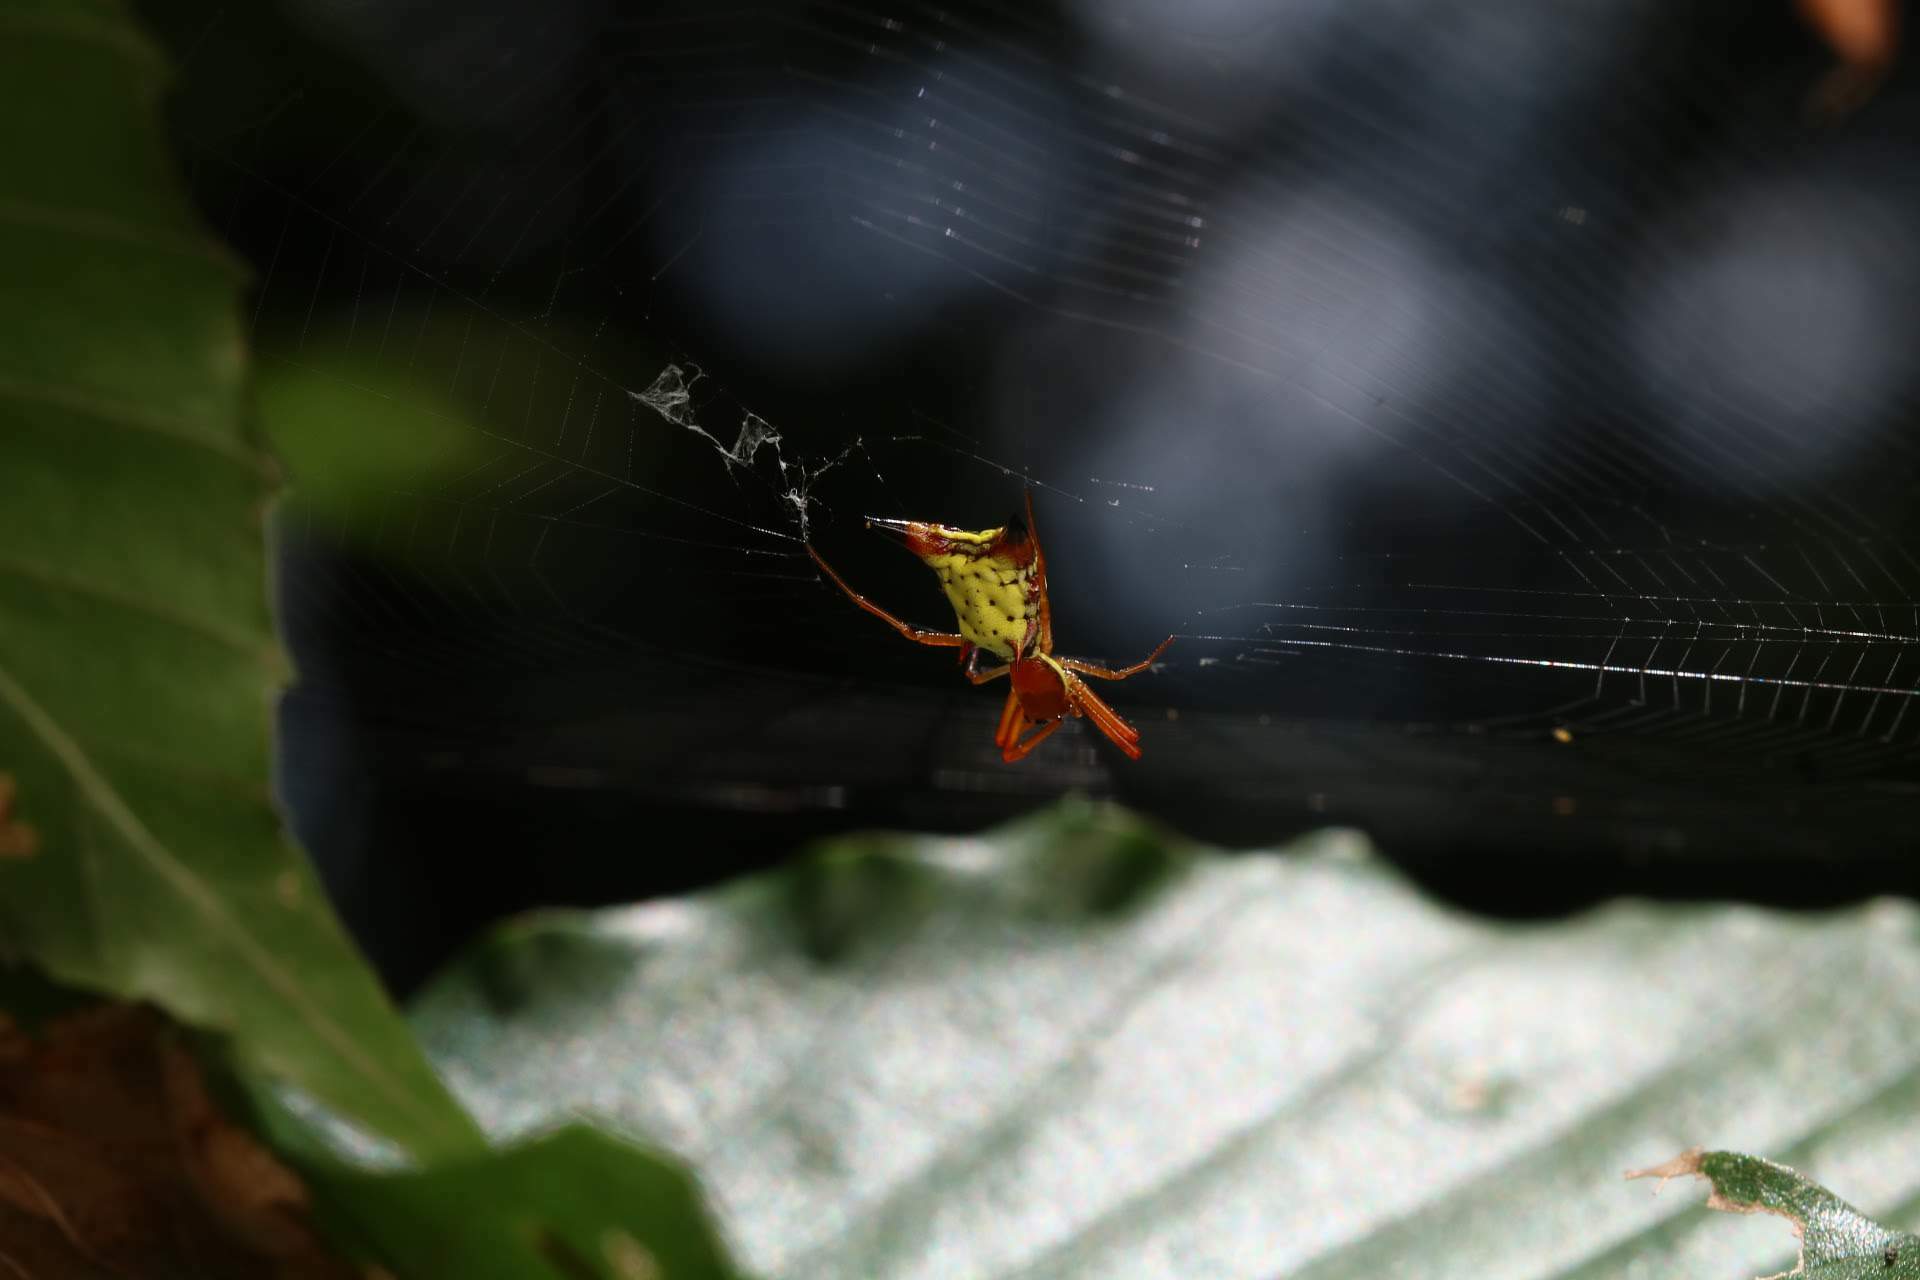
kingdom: Animalia
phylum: Arthropoda
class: Arachnida
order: Araneae
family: Araneidae
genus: Micrathena
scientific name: Micrathena sagittata
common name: Orb weavers
